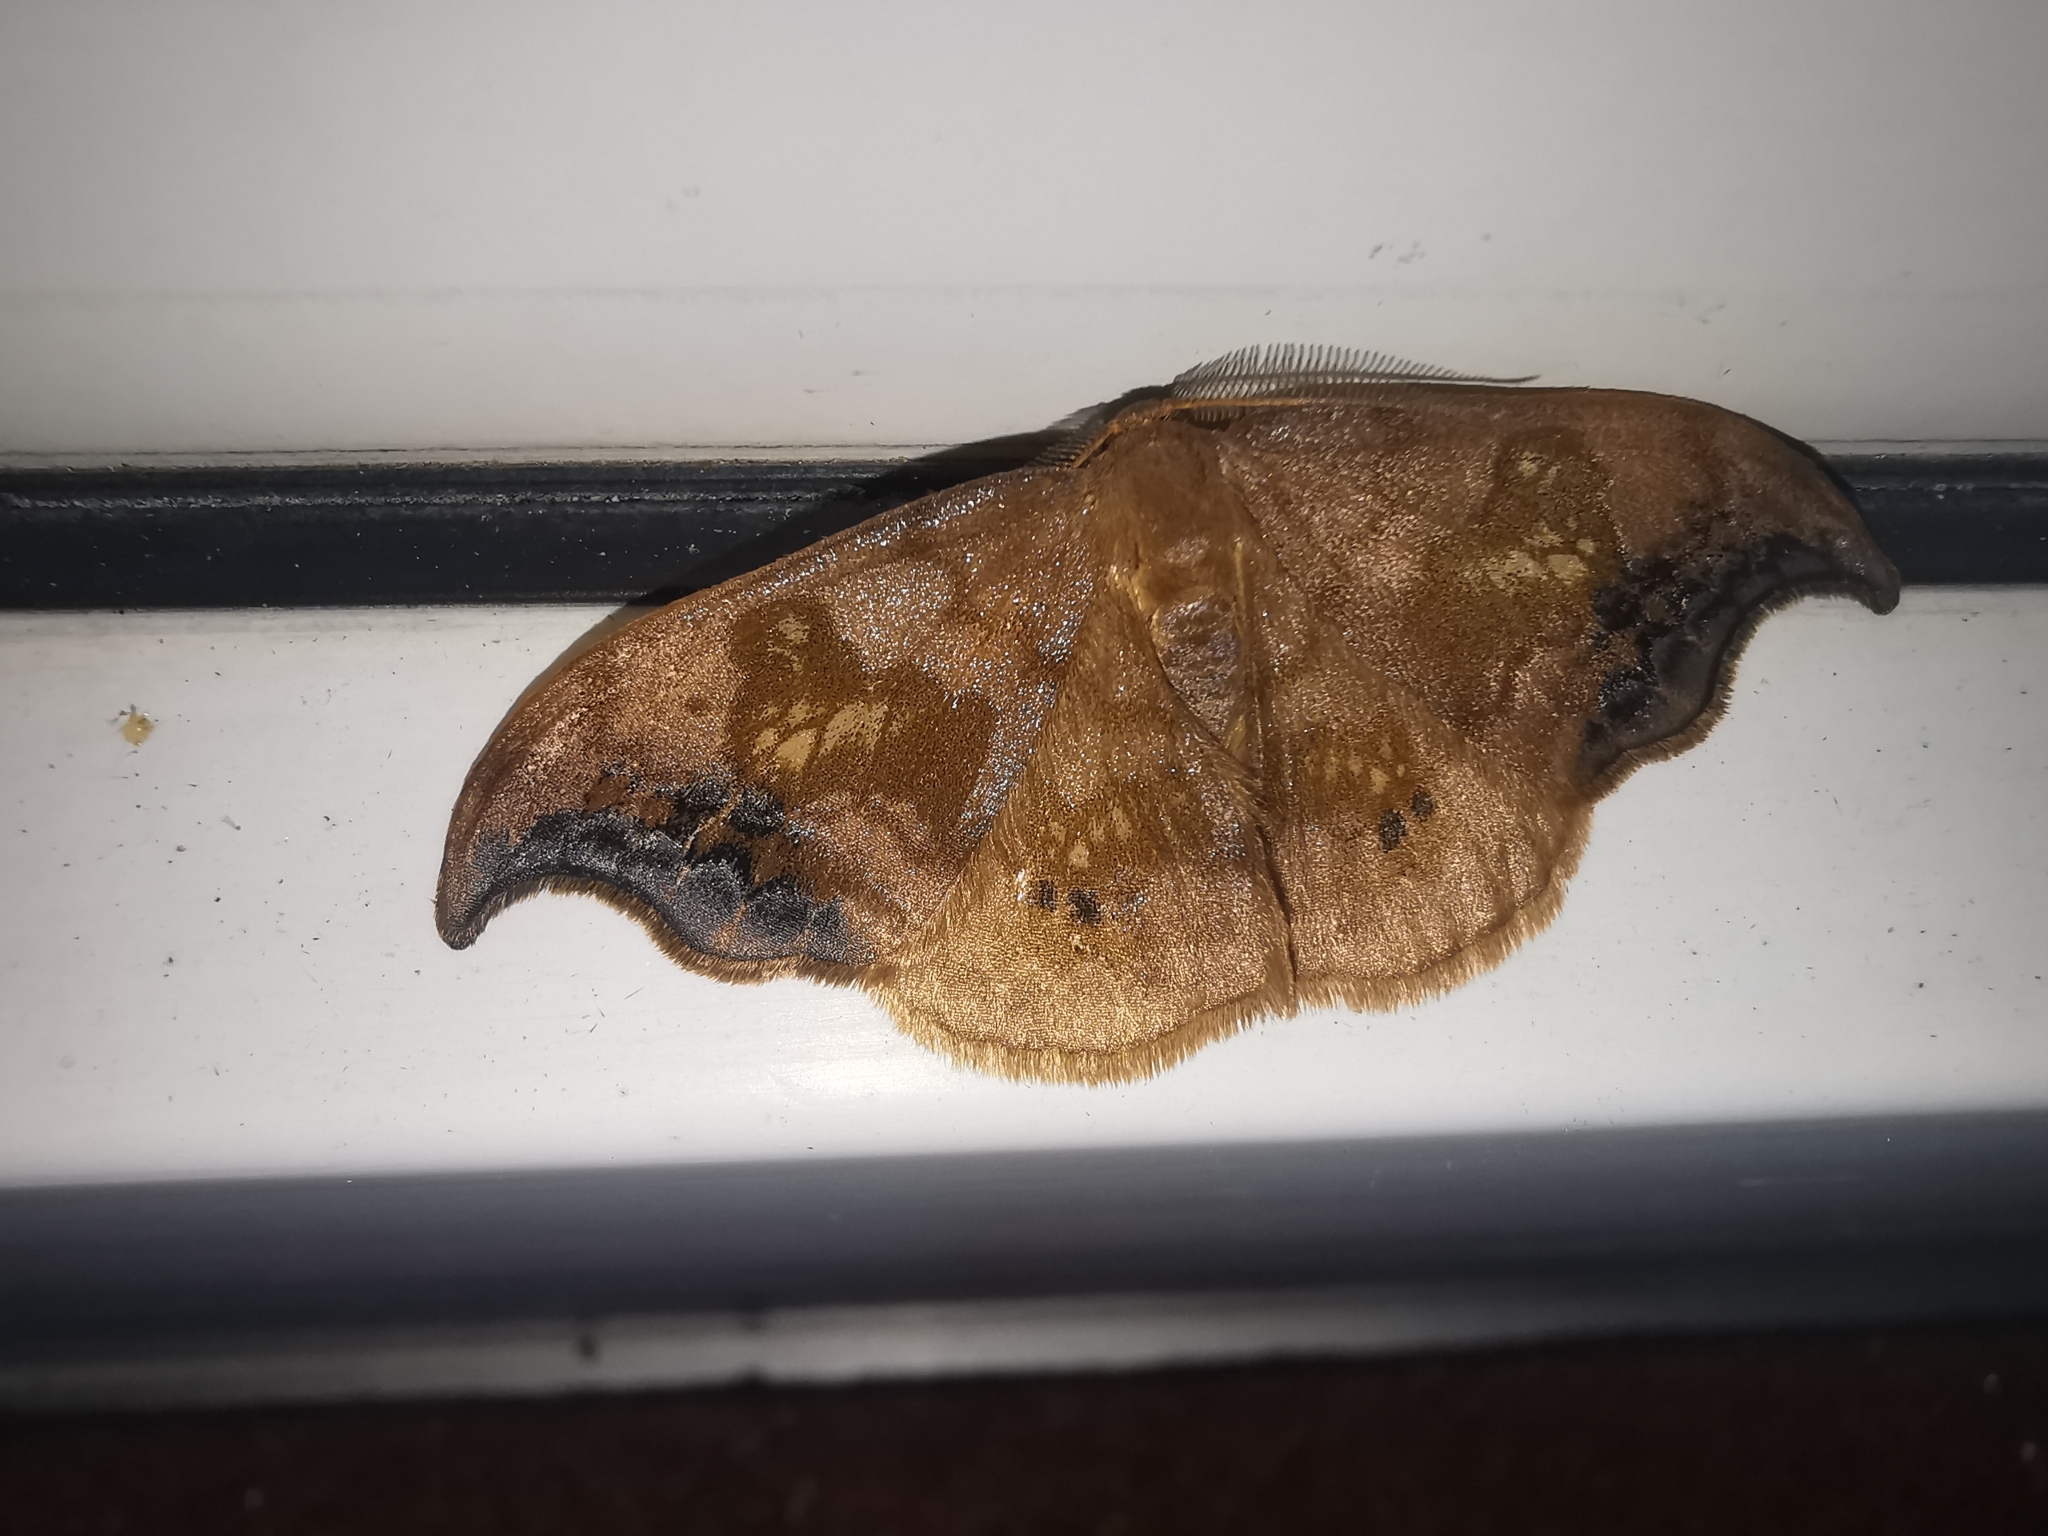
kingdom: Animalia
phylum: Arthropoda
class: Insecta
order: Lepidoptera
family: Drepanidae
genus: Sabra
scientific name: Sabra harpagula
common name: Scarce hook-tip
